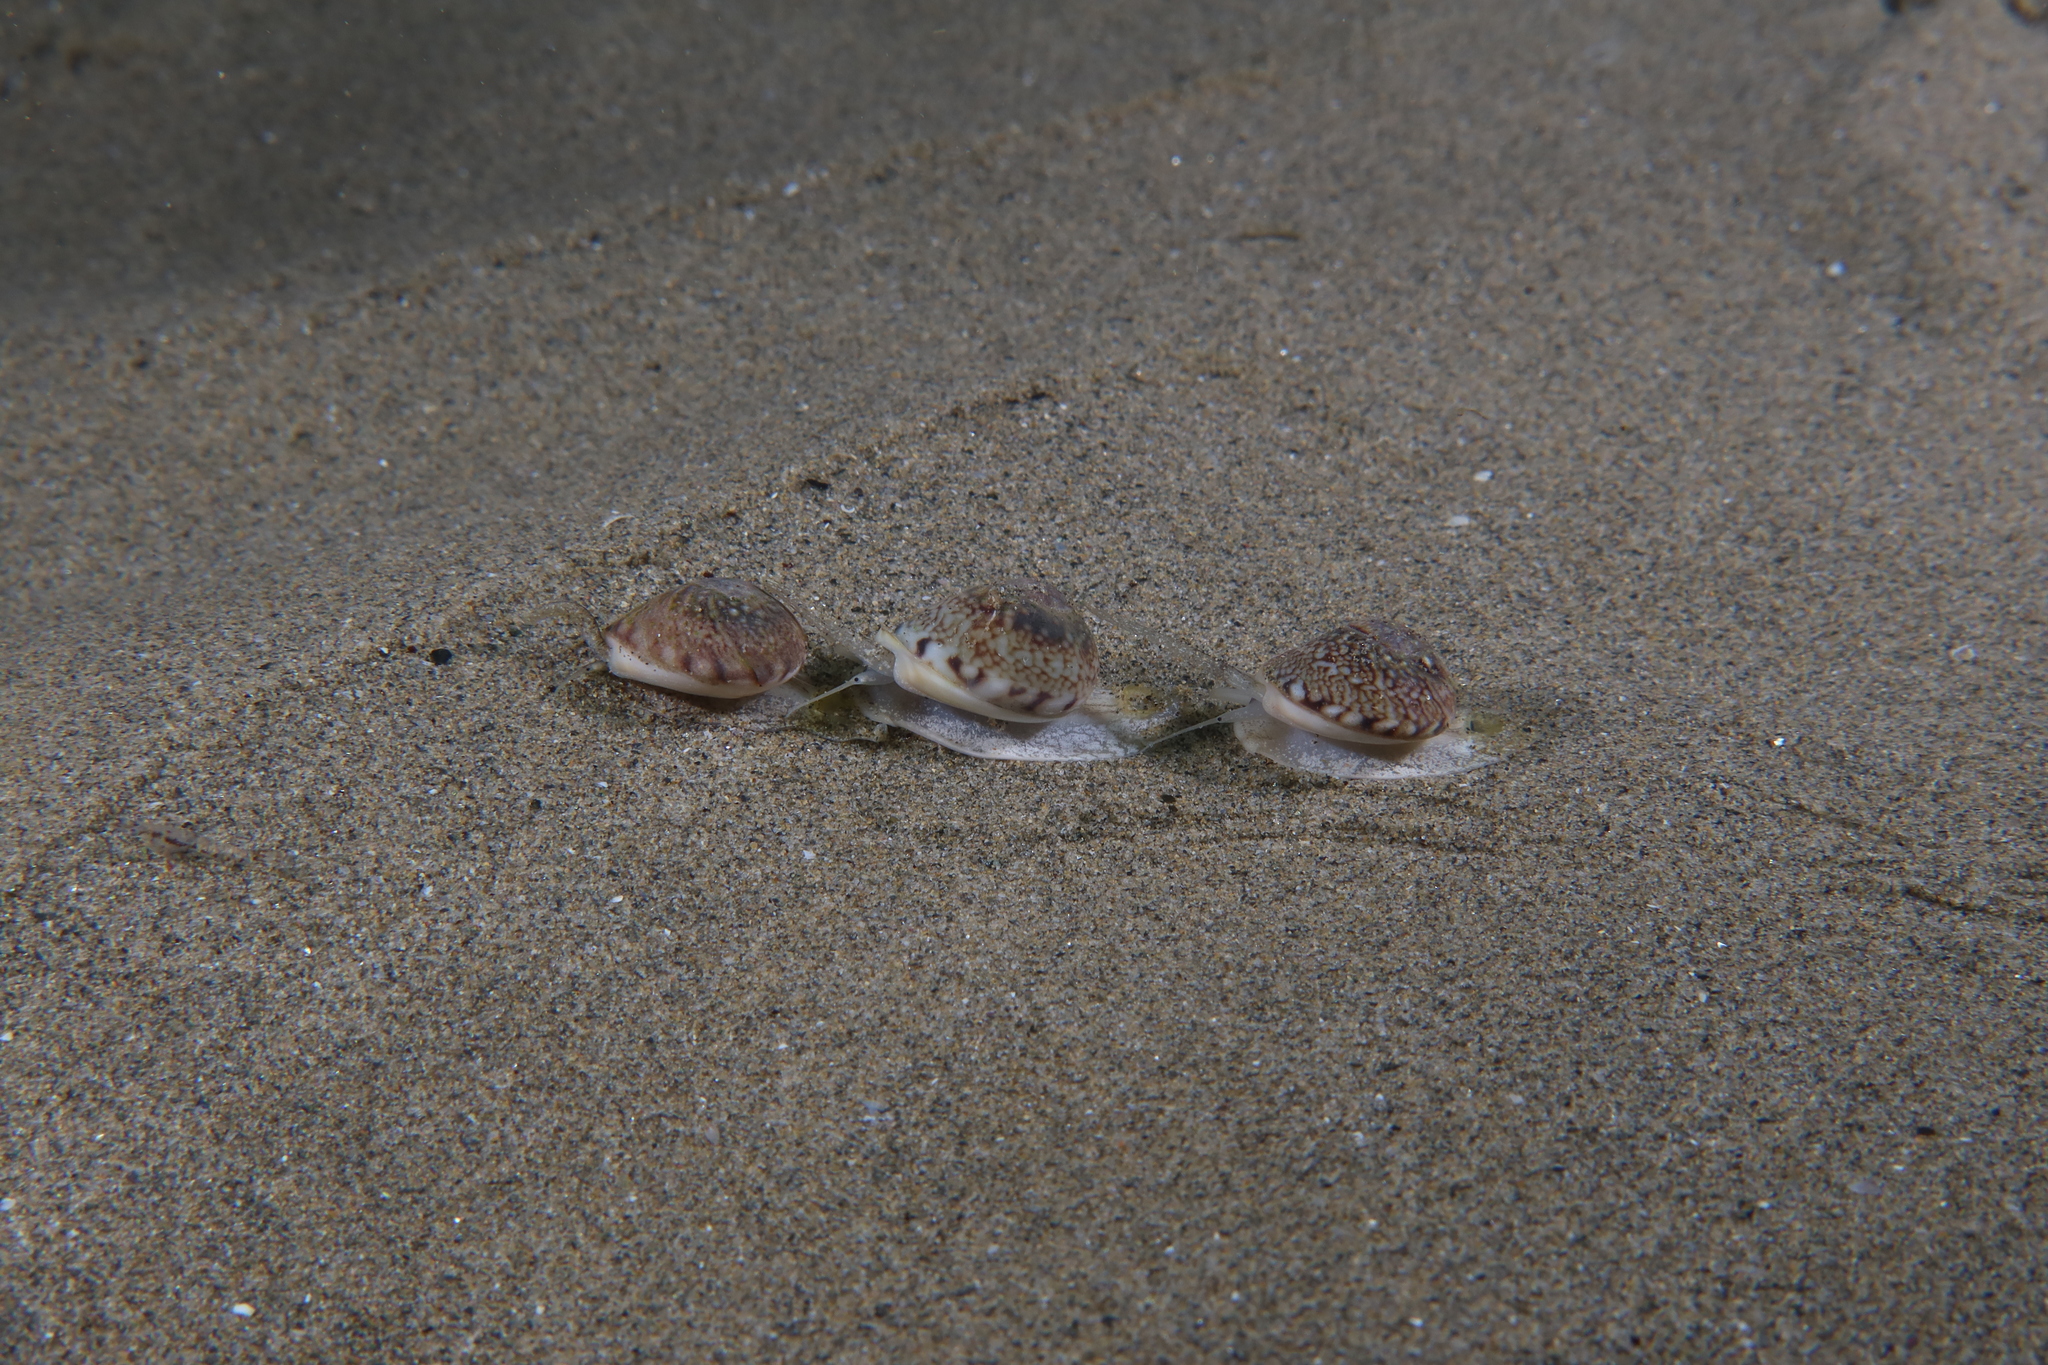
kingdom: Animalia
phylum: Mollusca
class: Gastropoda
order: Neogastropoda
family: Nassariidae
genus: Tritia
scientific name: Tritia neritea
